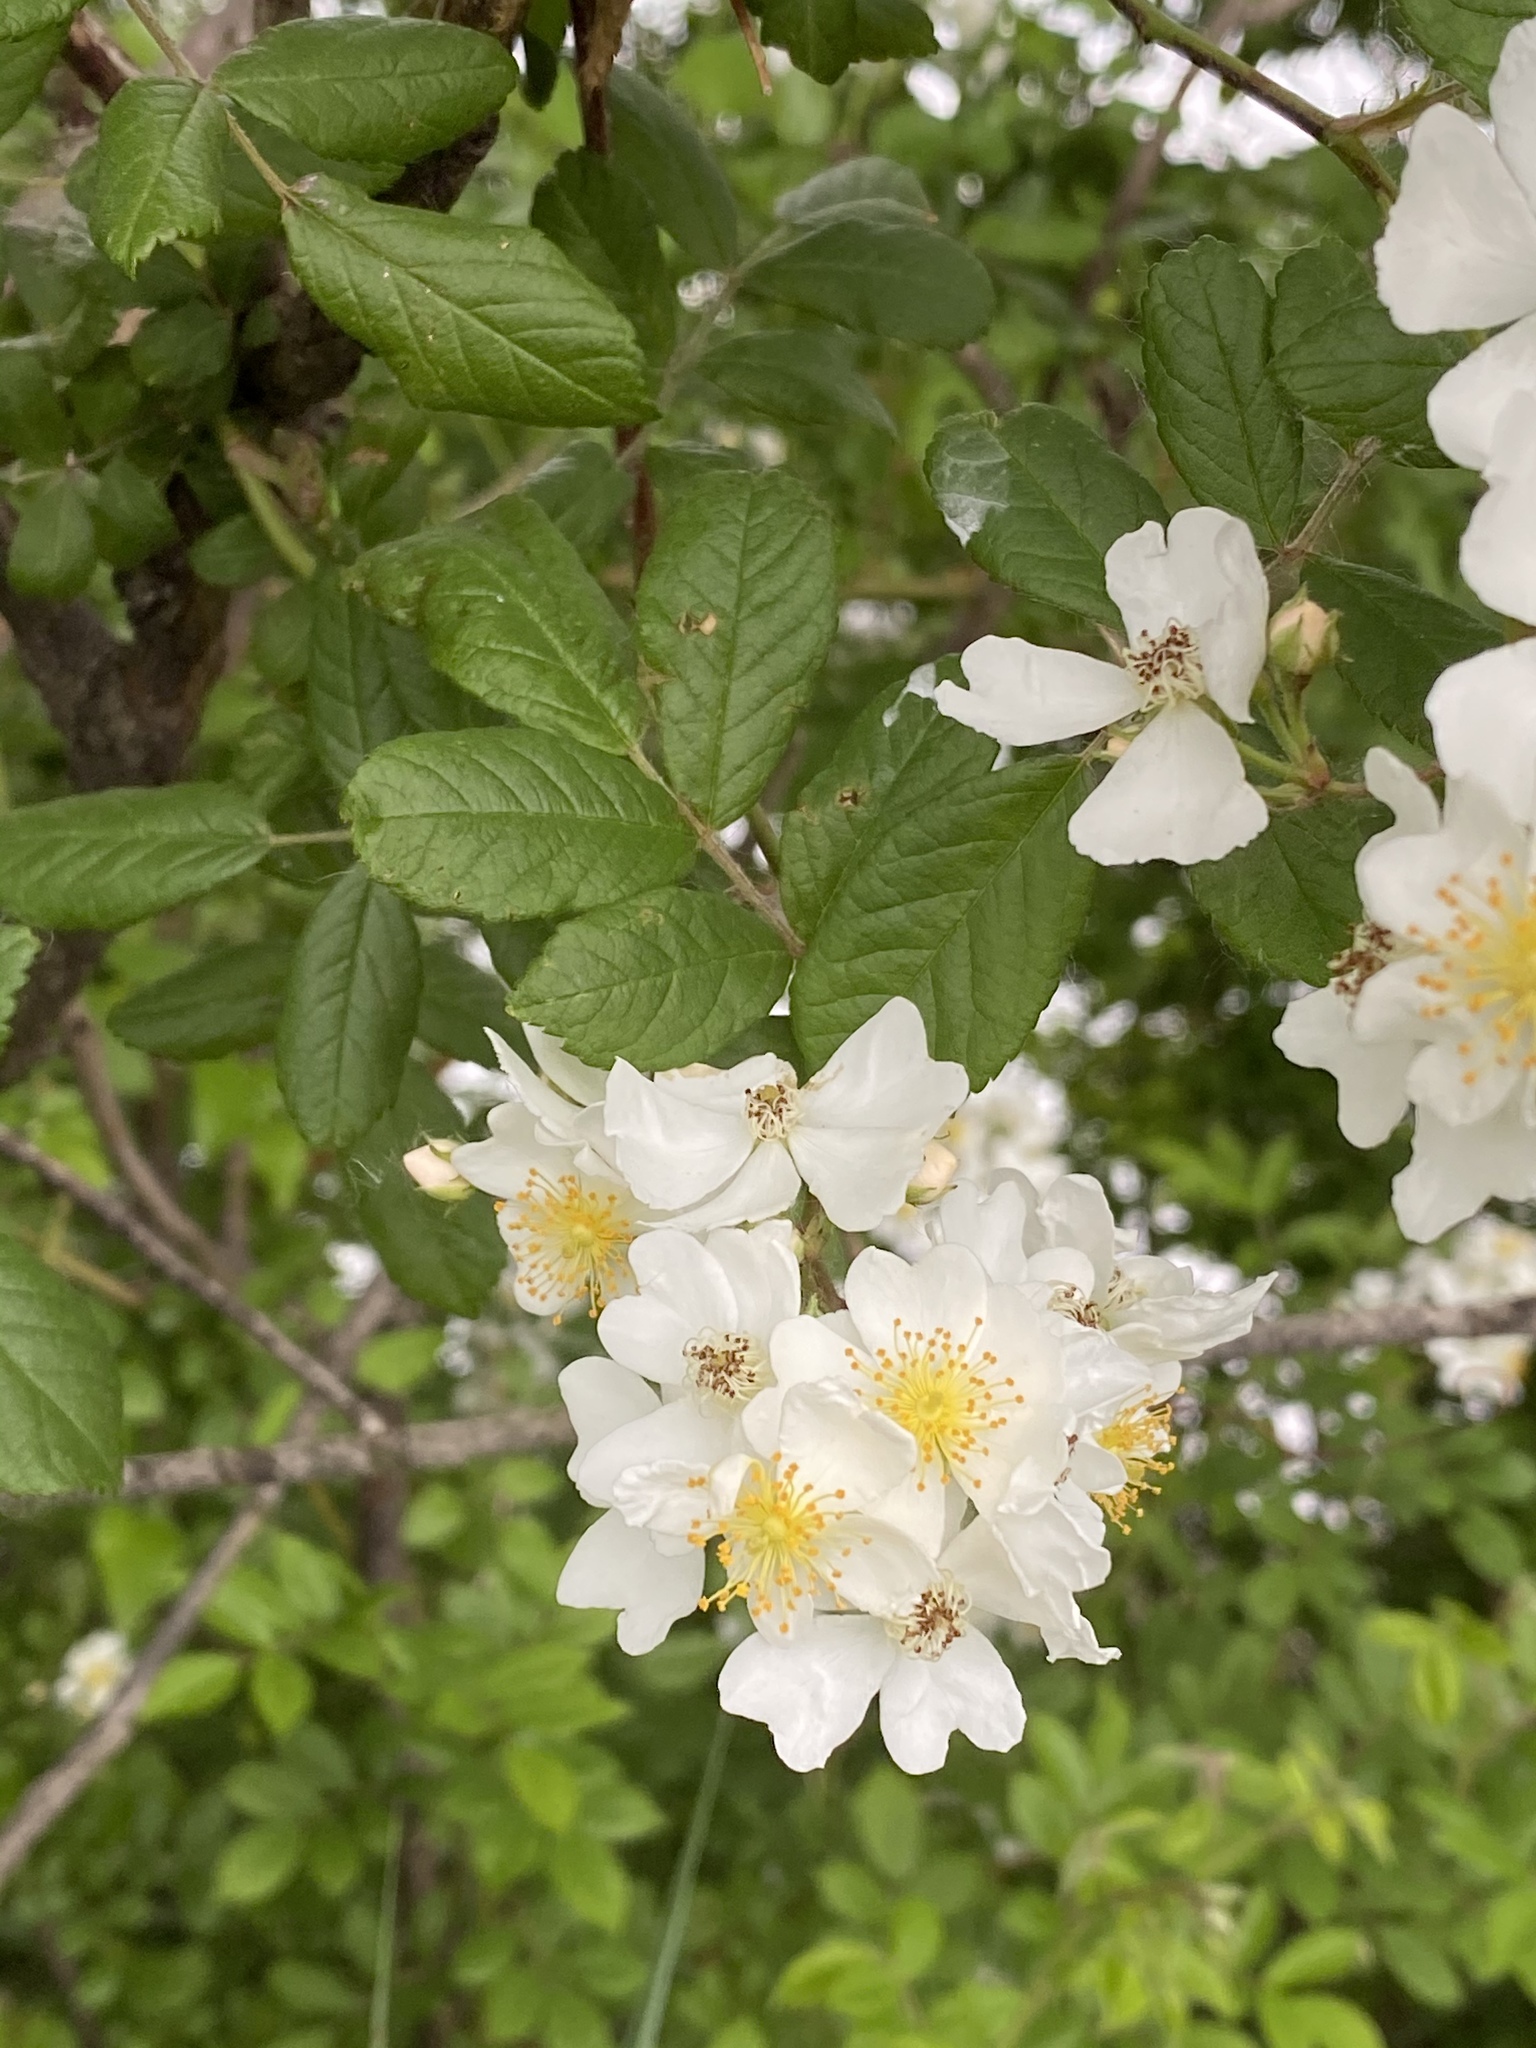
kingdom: Plantae
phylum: Tracheophyta
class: Magnoliopsida
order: Rosales
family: Rosaceae
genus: Rosa
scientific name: Rosa multiflora
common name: Multiflora rose
